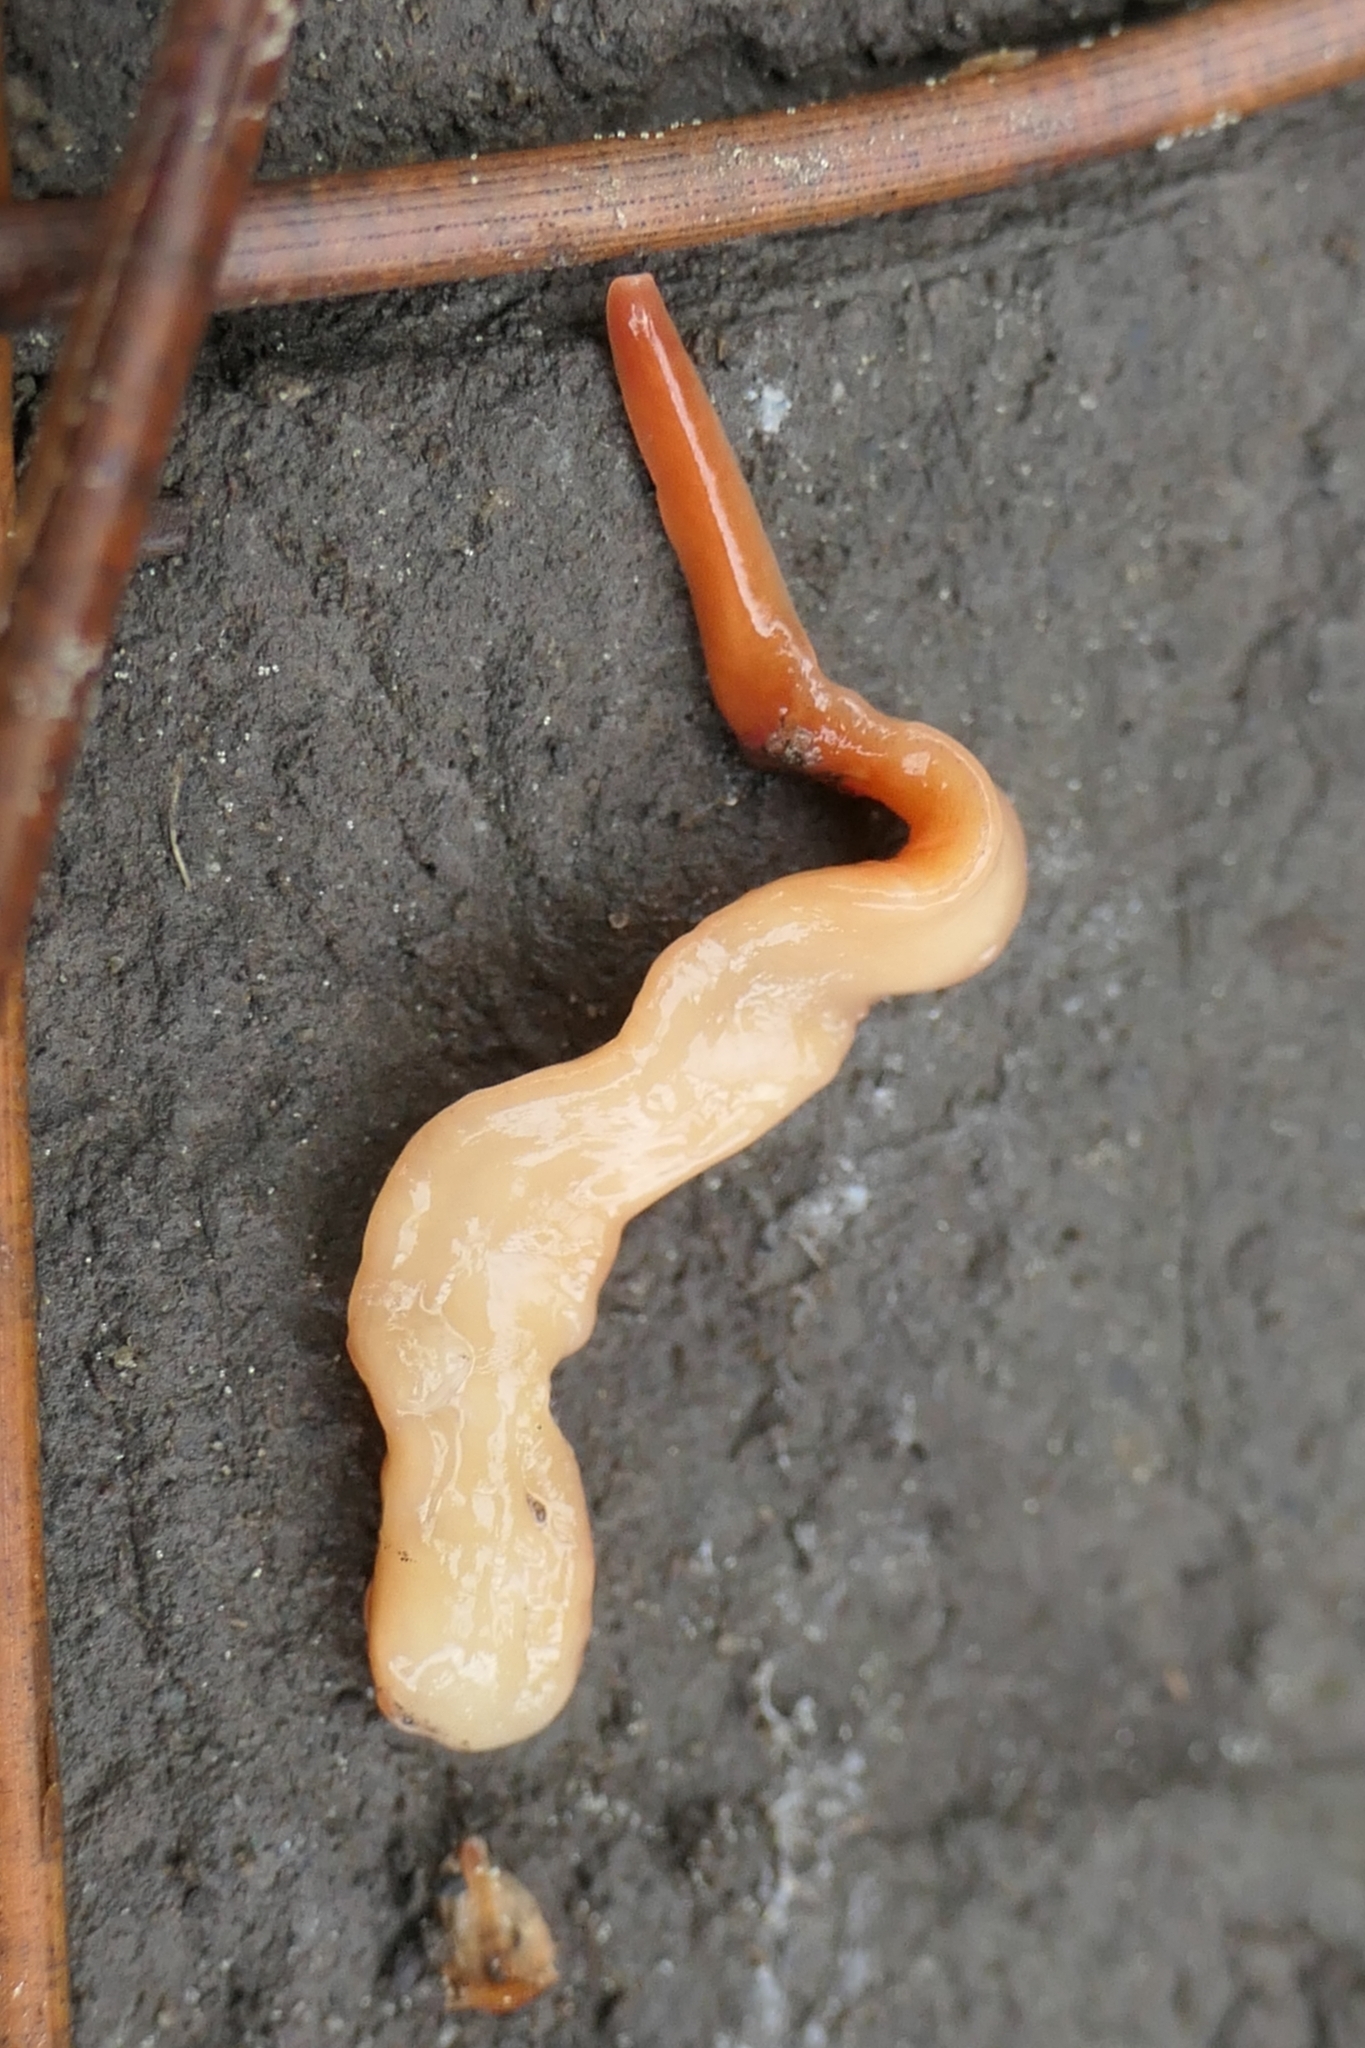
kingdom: Animalia
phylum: Platyhelminthes
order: Tricladida
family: Geoplanidae
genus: Australoplana
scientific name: Australoplana sanguinea
